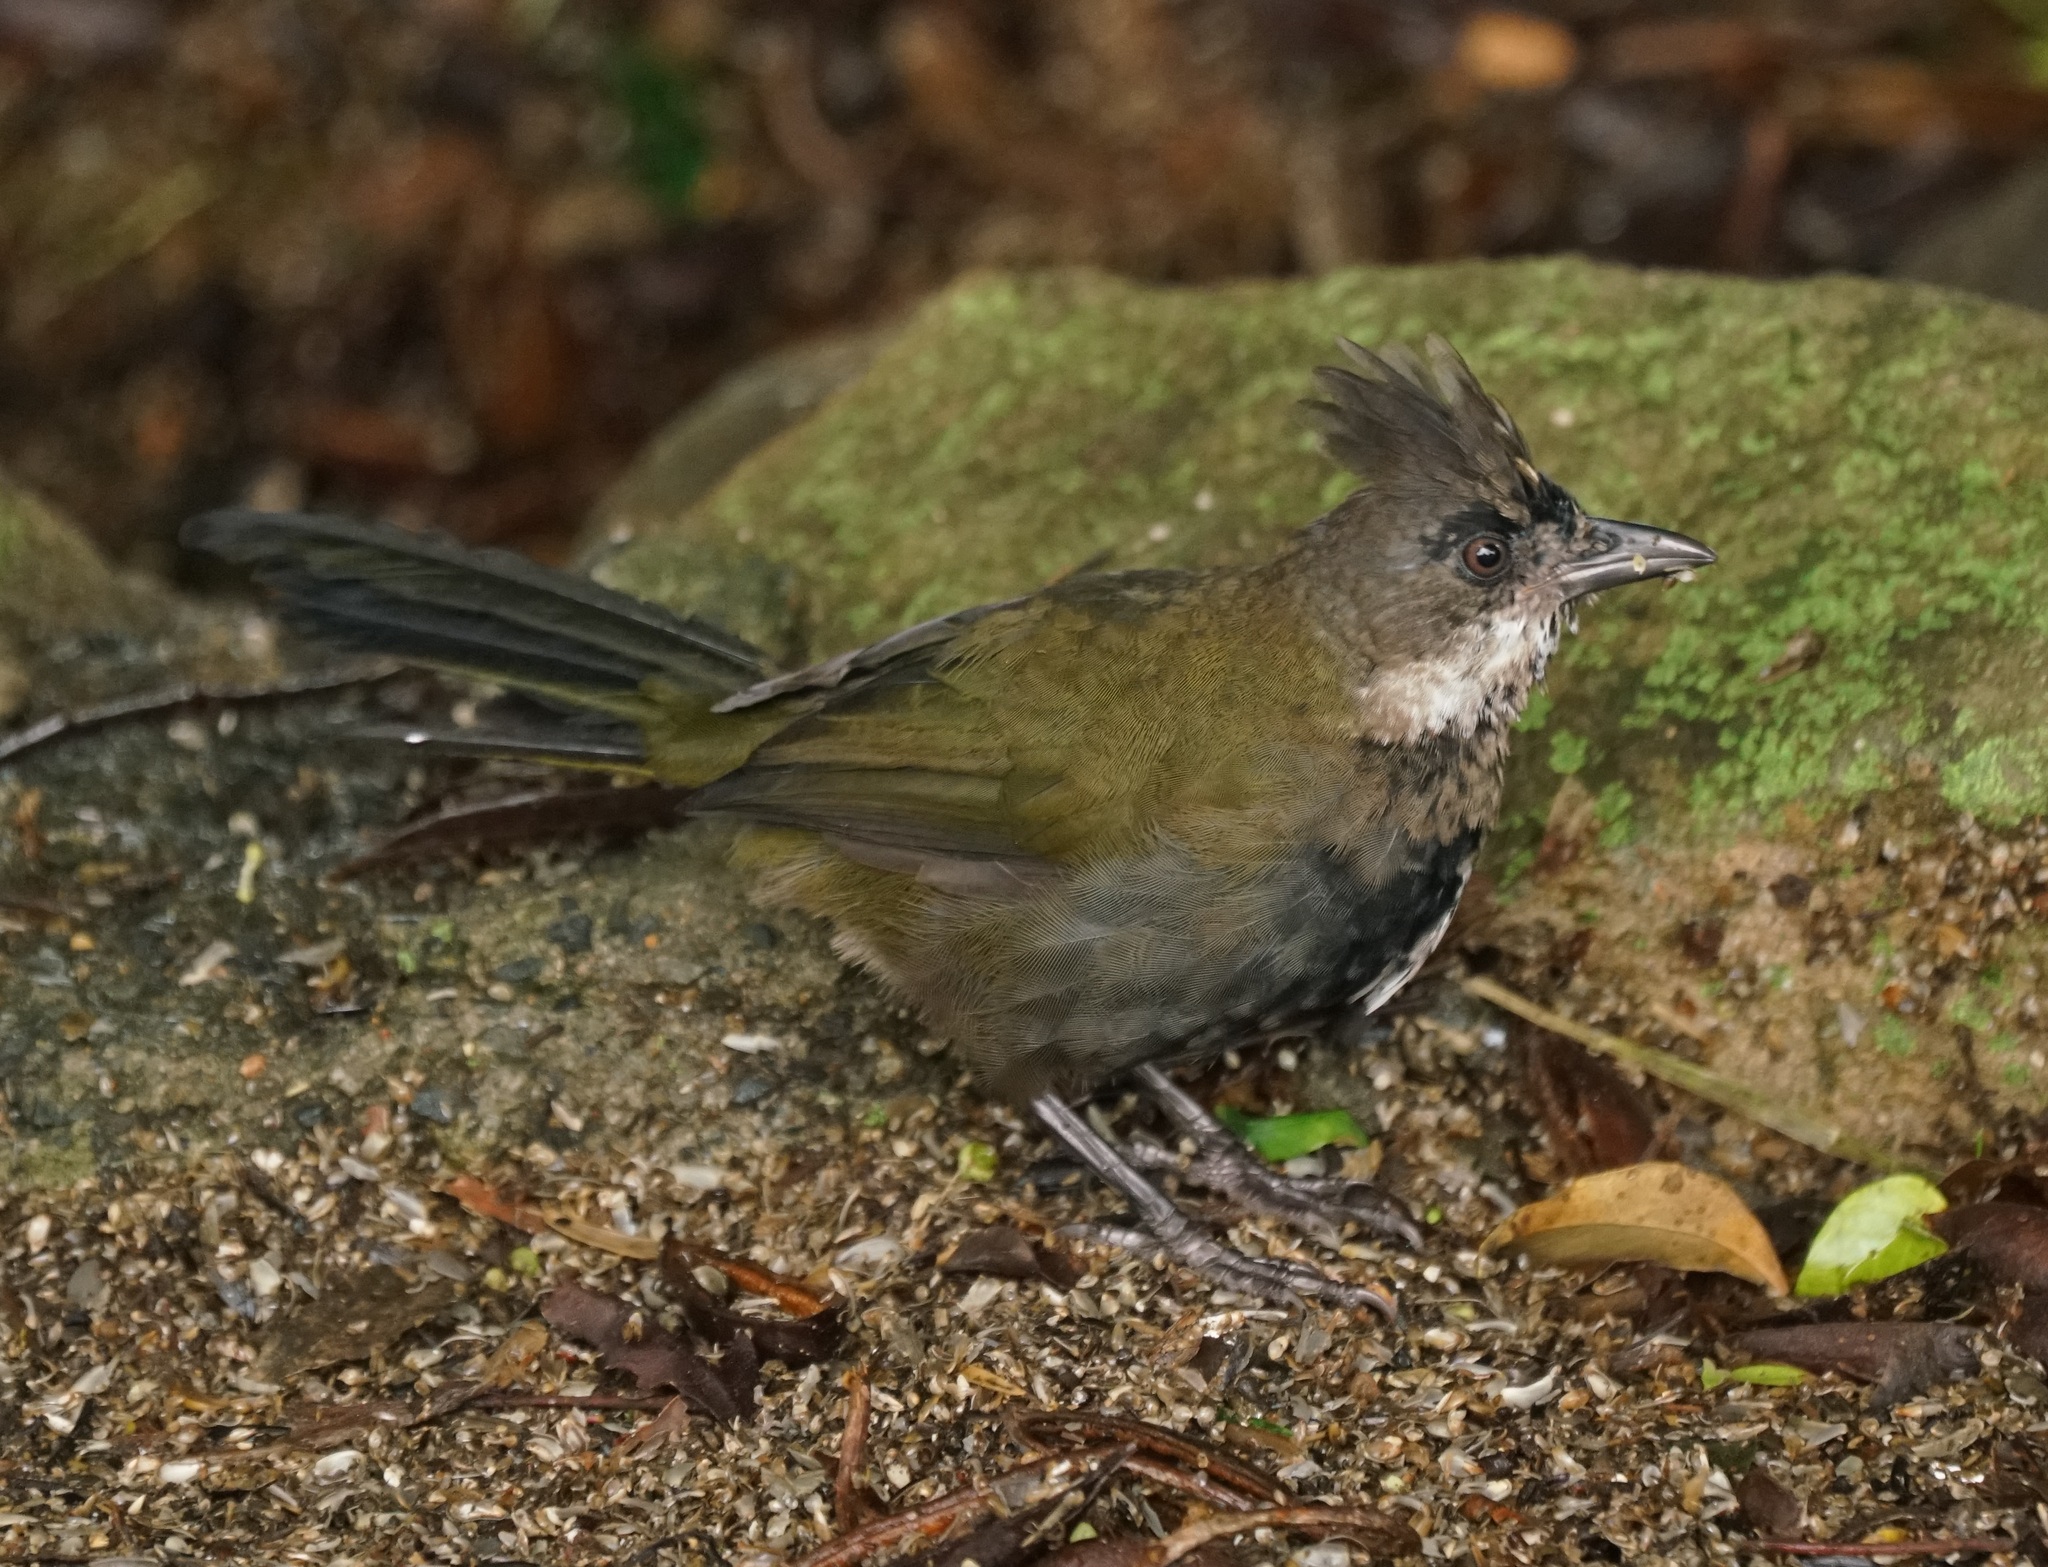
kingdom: Animalia
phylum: Chordata
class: Aves
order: Passeriformes
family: Psophodidae
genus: Psophodes
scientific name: Psophodes olivaceus
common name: Eastern whipbird
